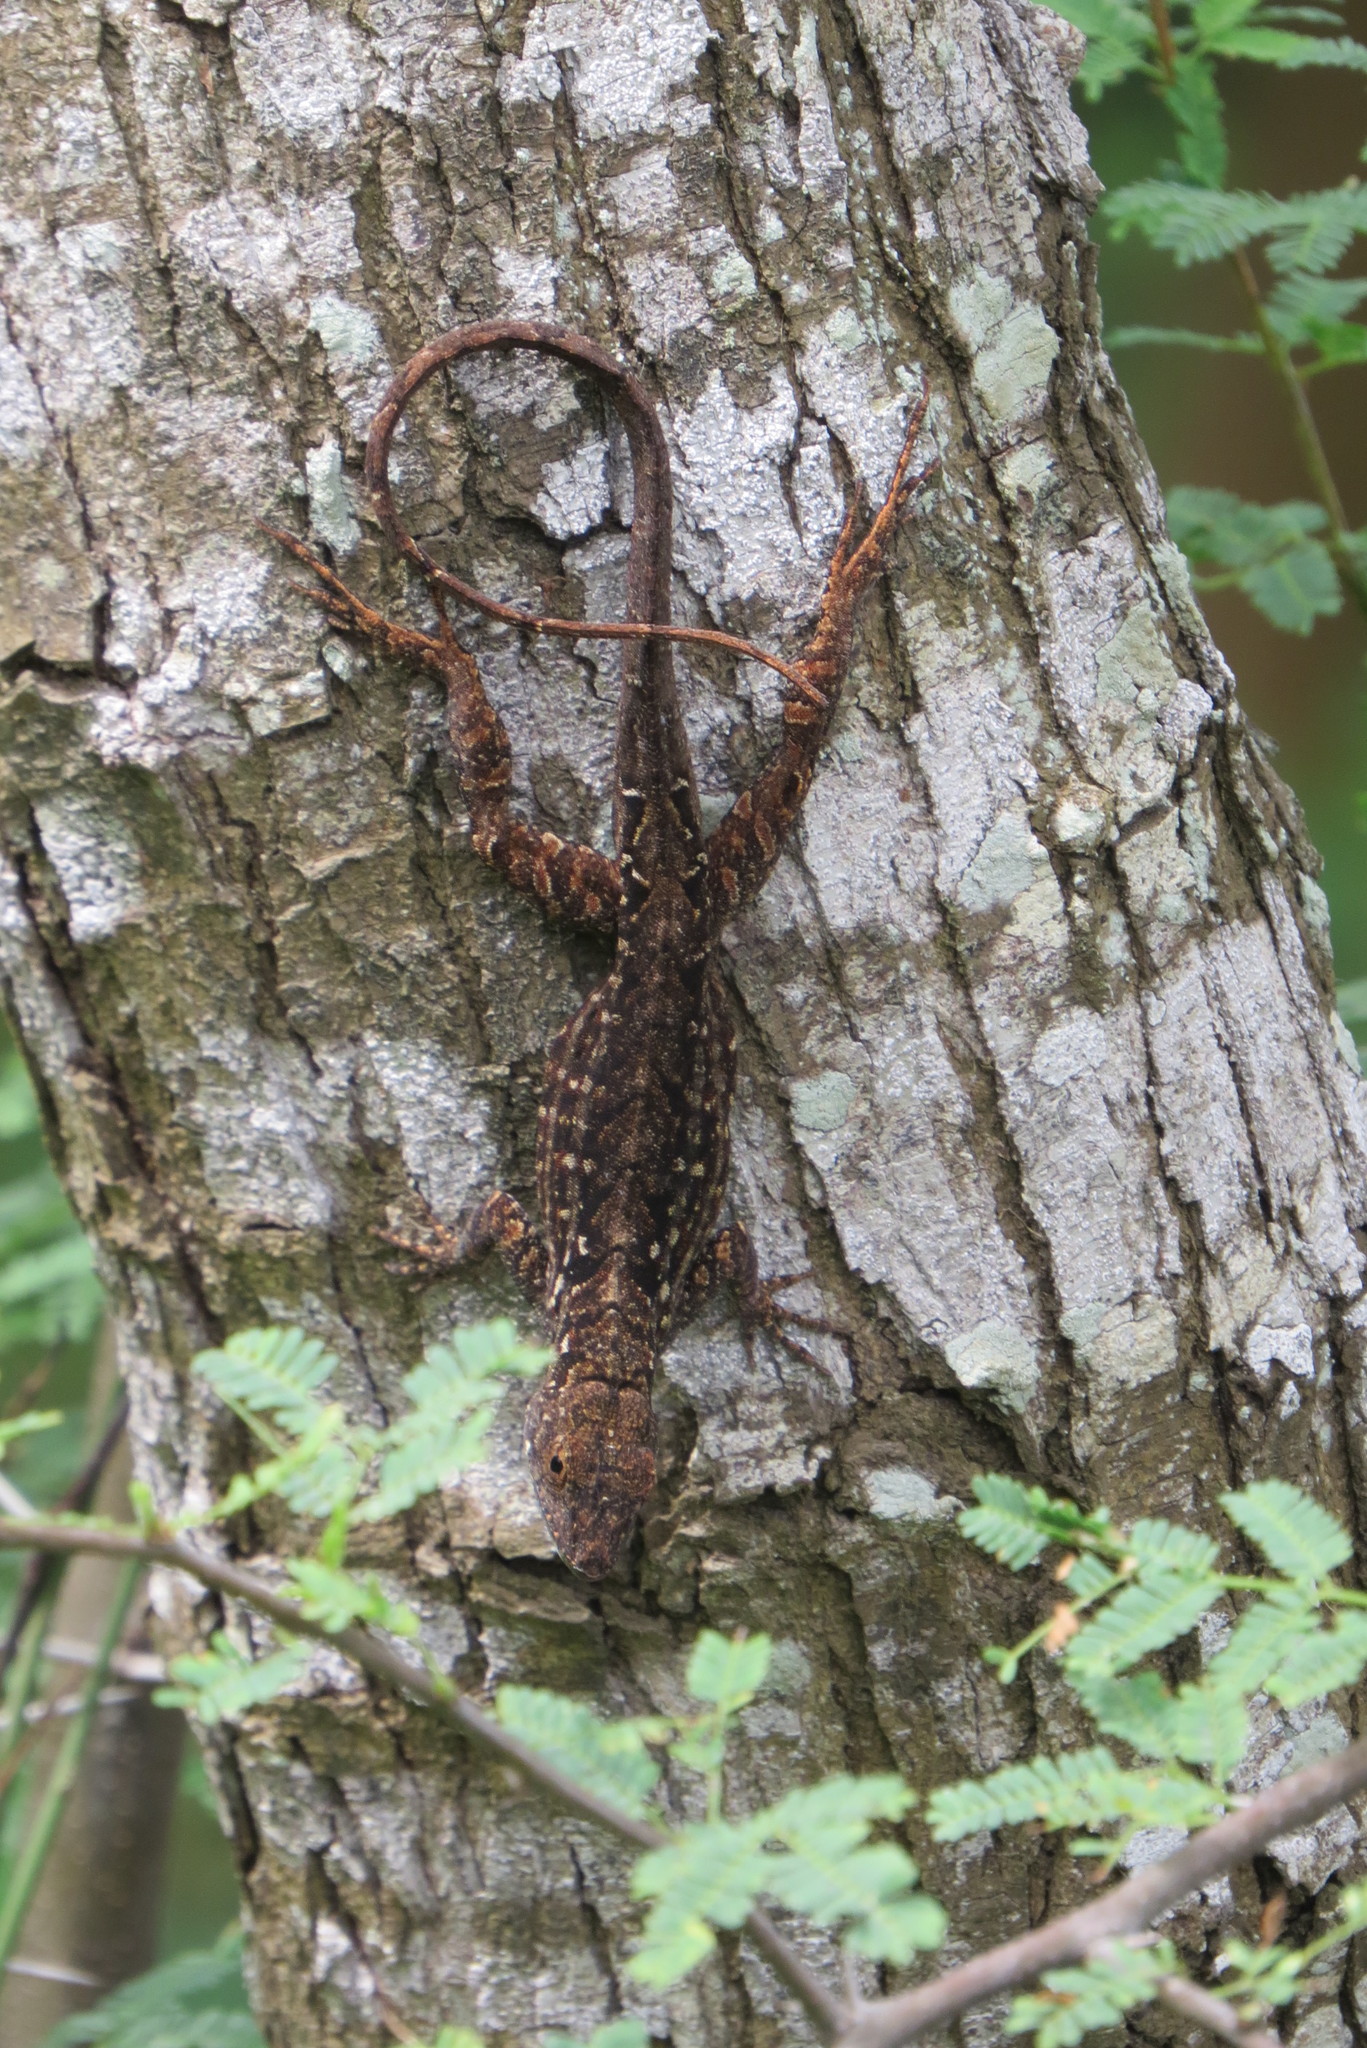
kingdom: Animalia
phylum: Chordata
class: Squamata
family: Dactyloidae
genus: Anolis
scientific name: Anolis sagrei
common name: Brown anole
